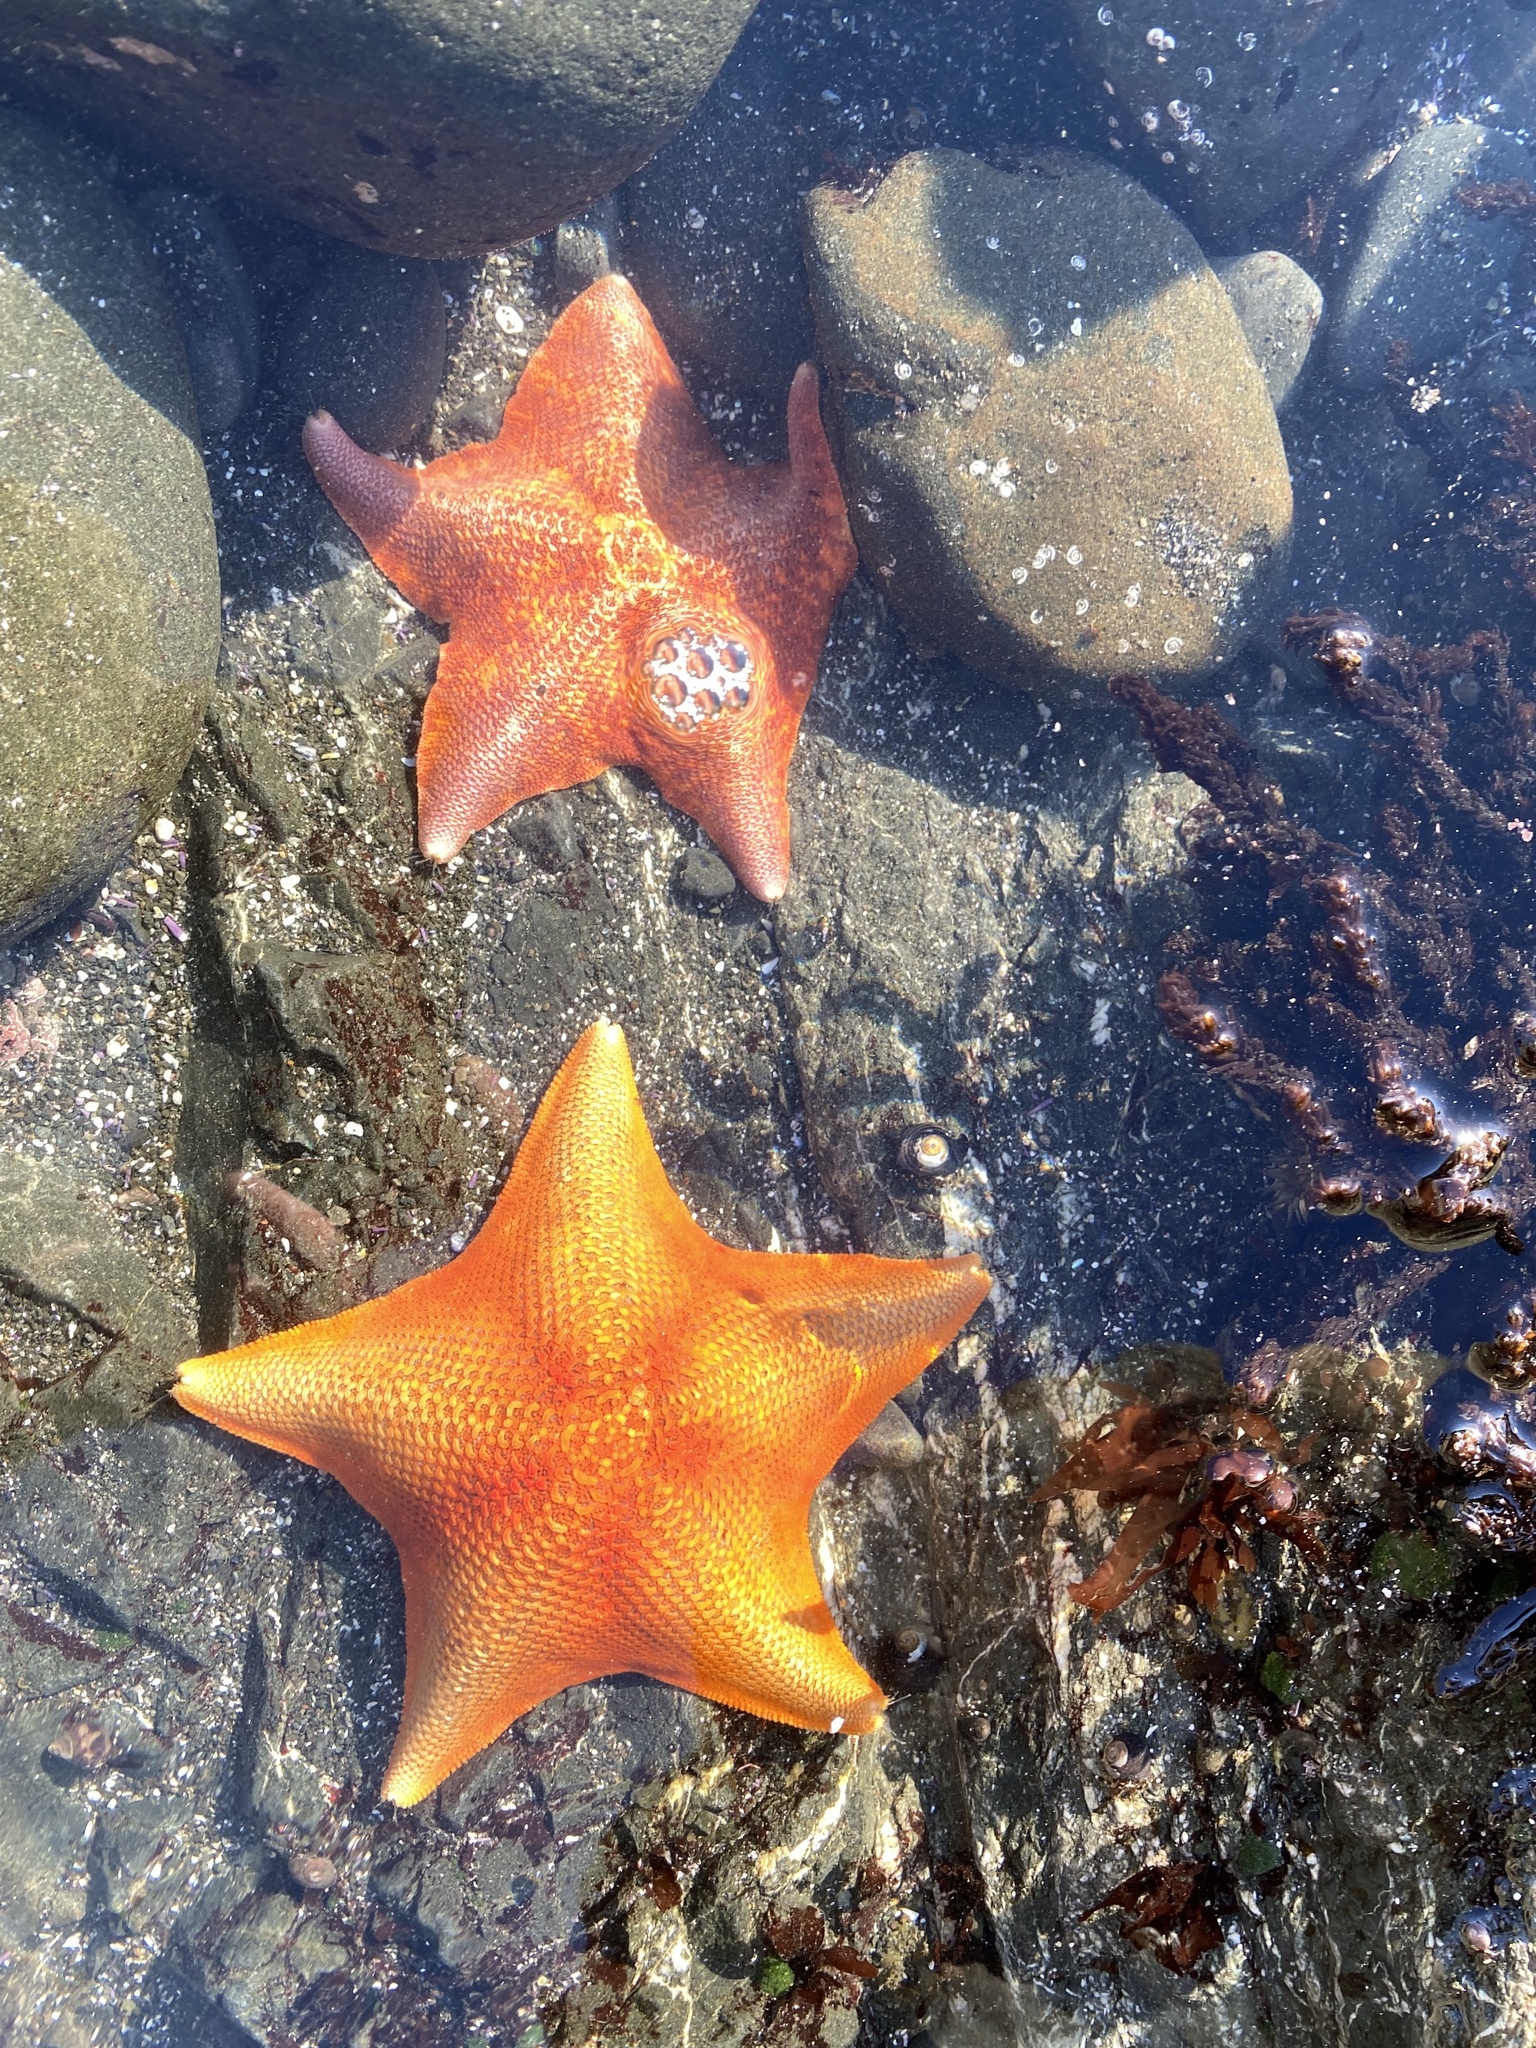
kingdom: Animalia
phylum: Echinodermata
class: Asteroidea
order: Valvatida
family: Asterinidae
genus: Patiria
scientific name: Patiria miniata
